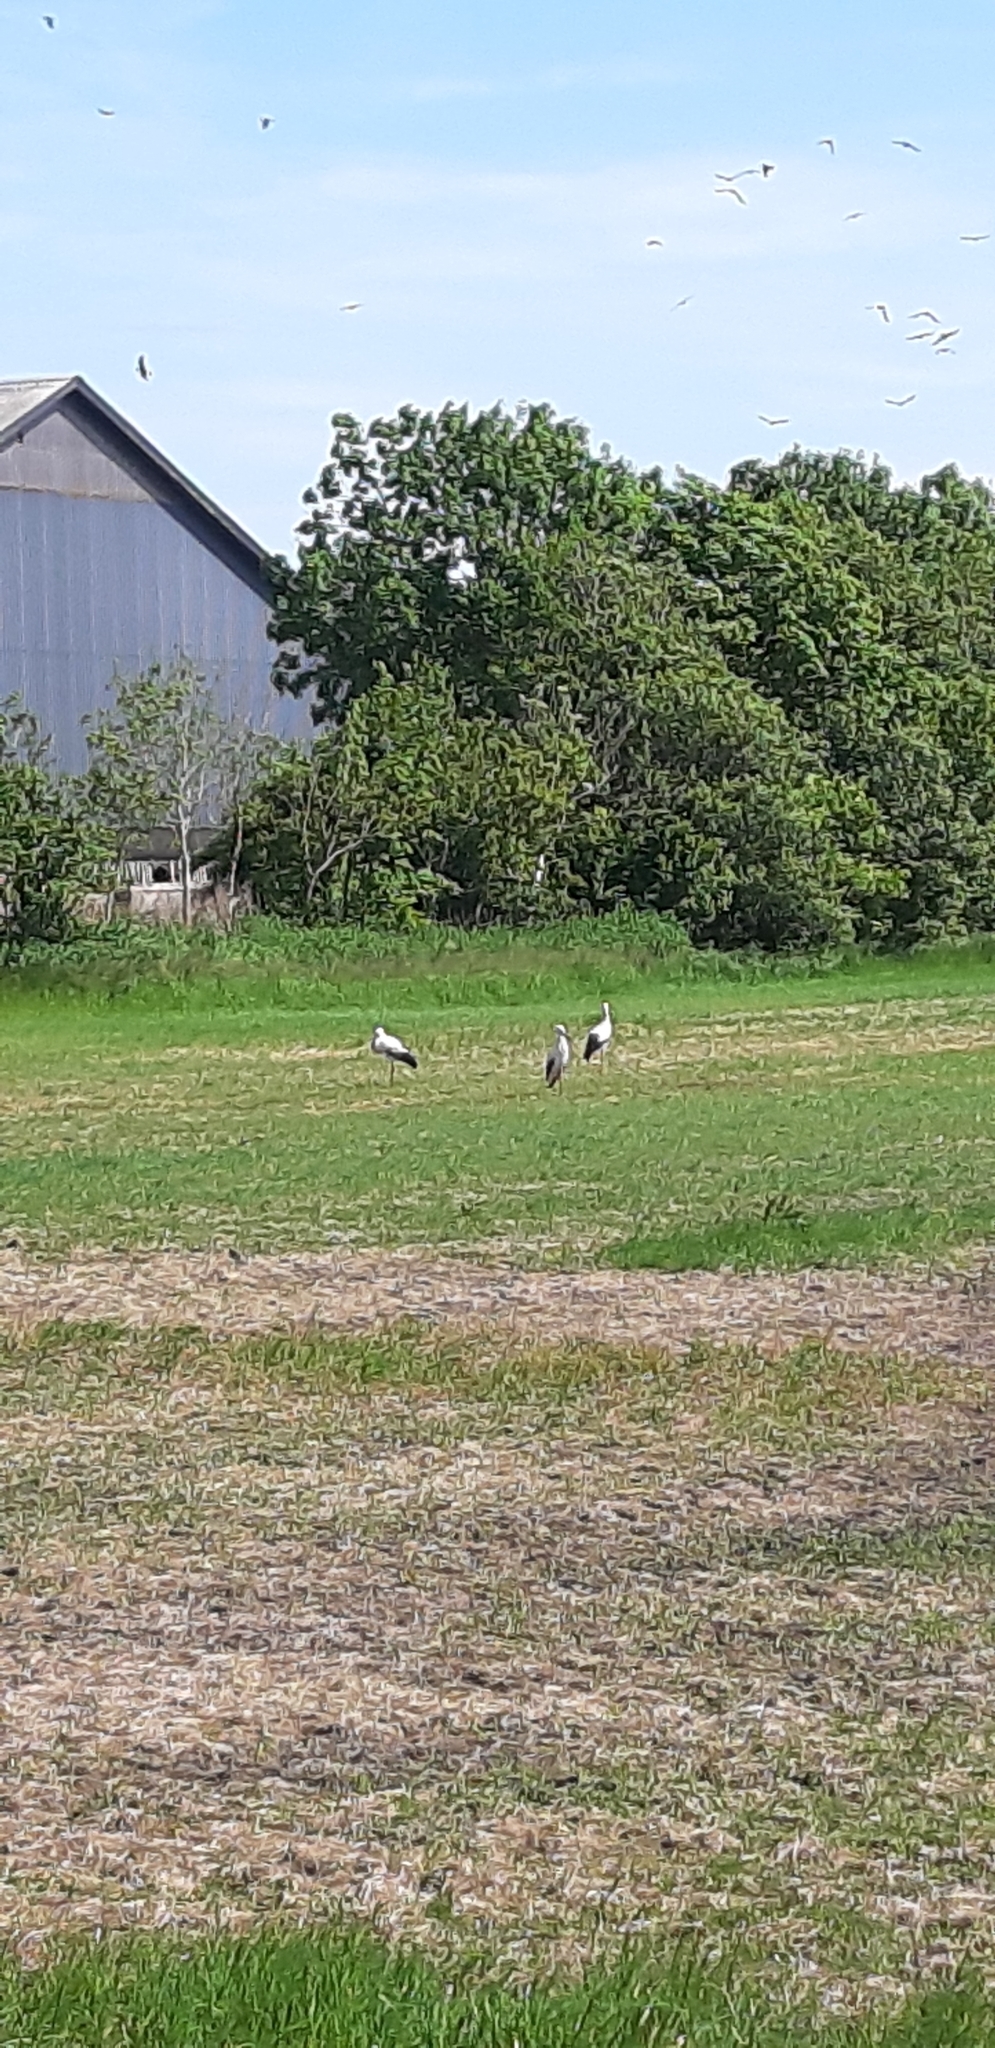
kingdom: Animalia
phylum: Chordata
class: Aves
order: Ciconiiformes
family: Ciconiidae
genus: Ciconia
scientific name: Ciconia ciconia
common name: White stork
